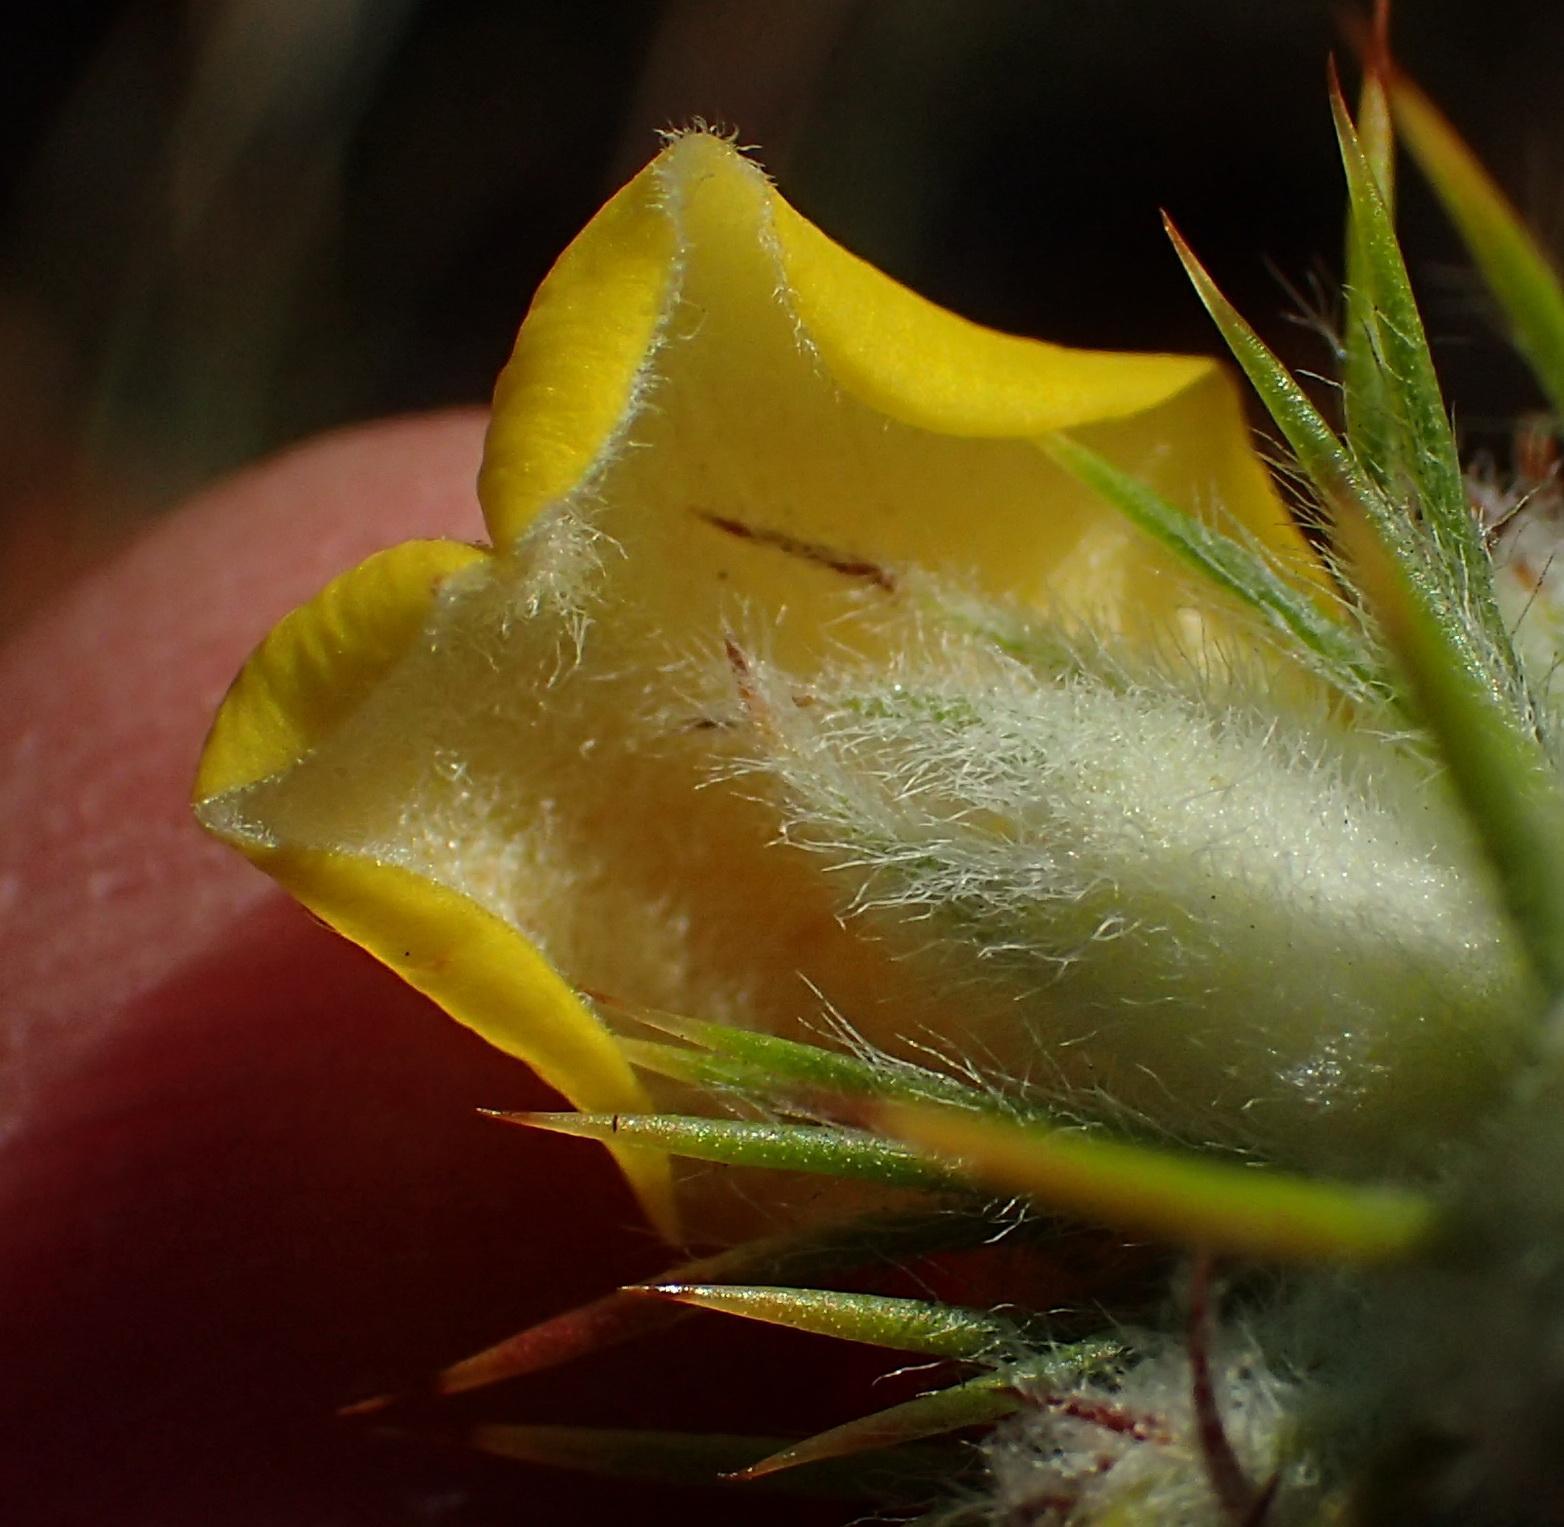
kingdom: Plantae
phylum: Tracheophyta
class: Magnoliopsida
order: Fabales
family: Fabaceae
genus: Aspalathus
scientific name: Aspalathus shawii
